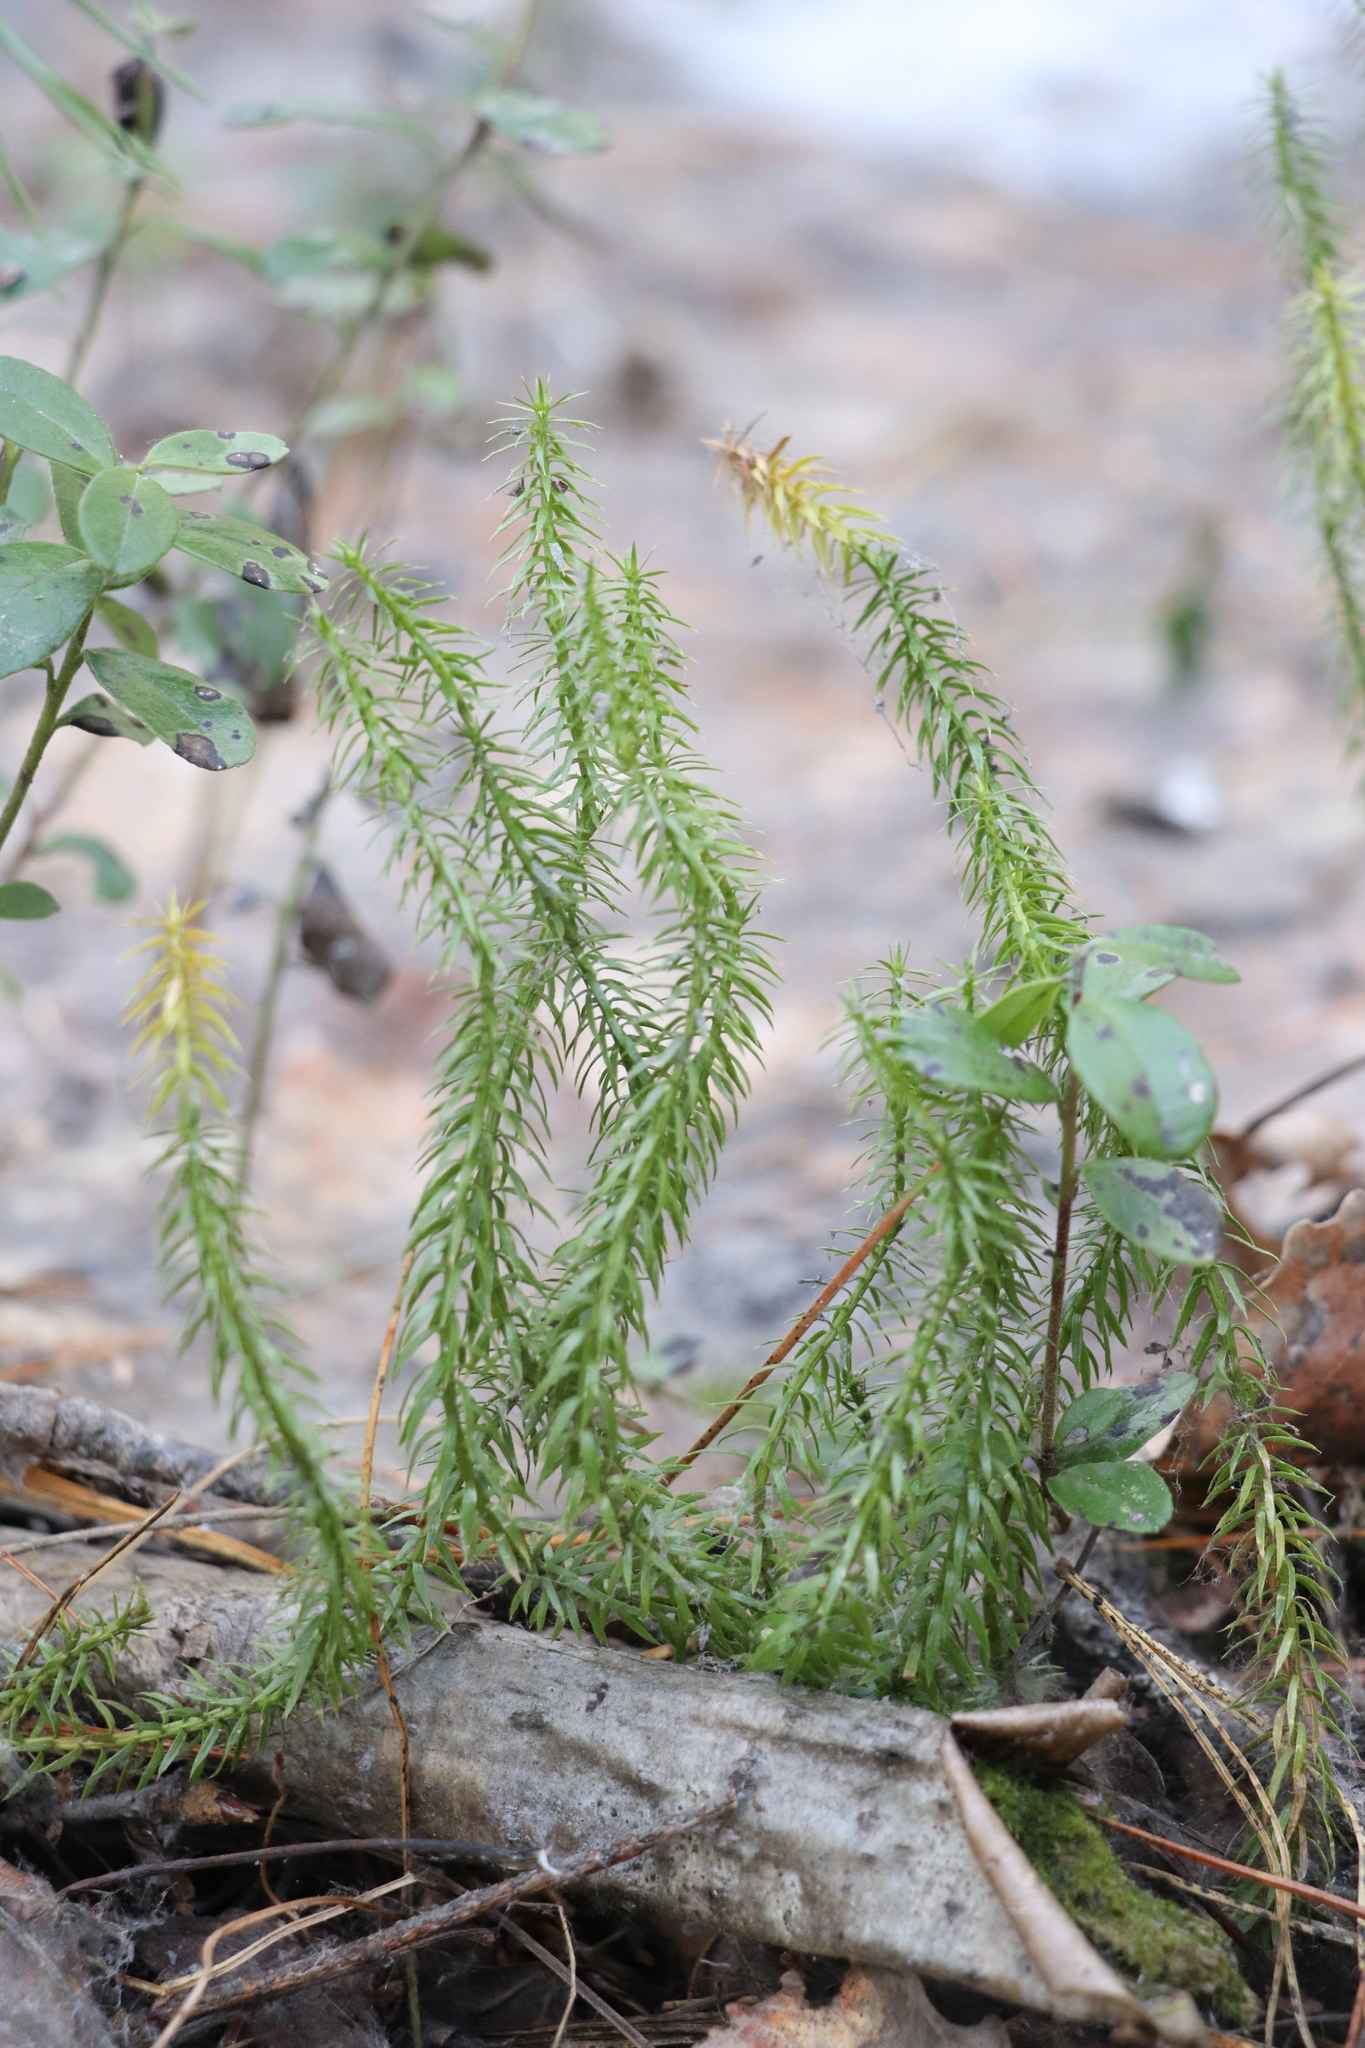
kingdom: Plantae
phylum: Tracheophyta
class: Lycopodiopsida
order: Lycopodiales
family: Lycopodiaceae
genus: Spinulum
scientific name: Spinulum annotinum
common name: Interrupted club-moss
